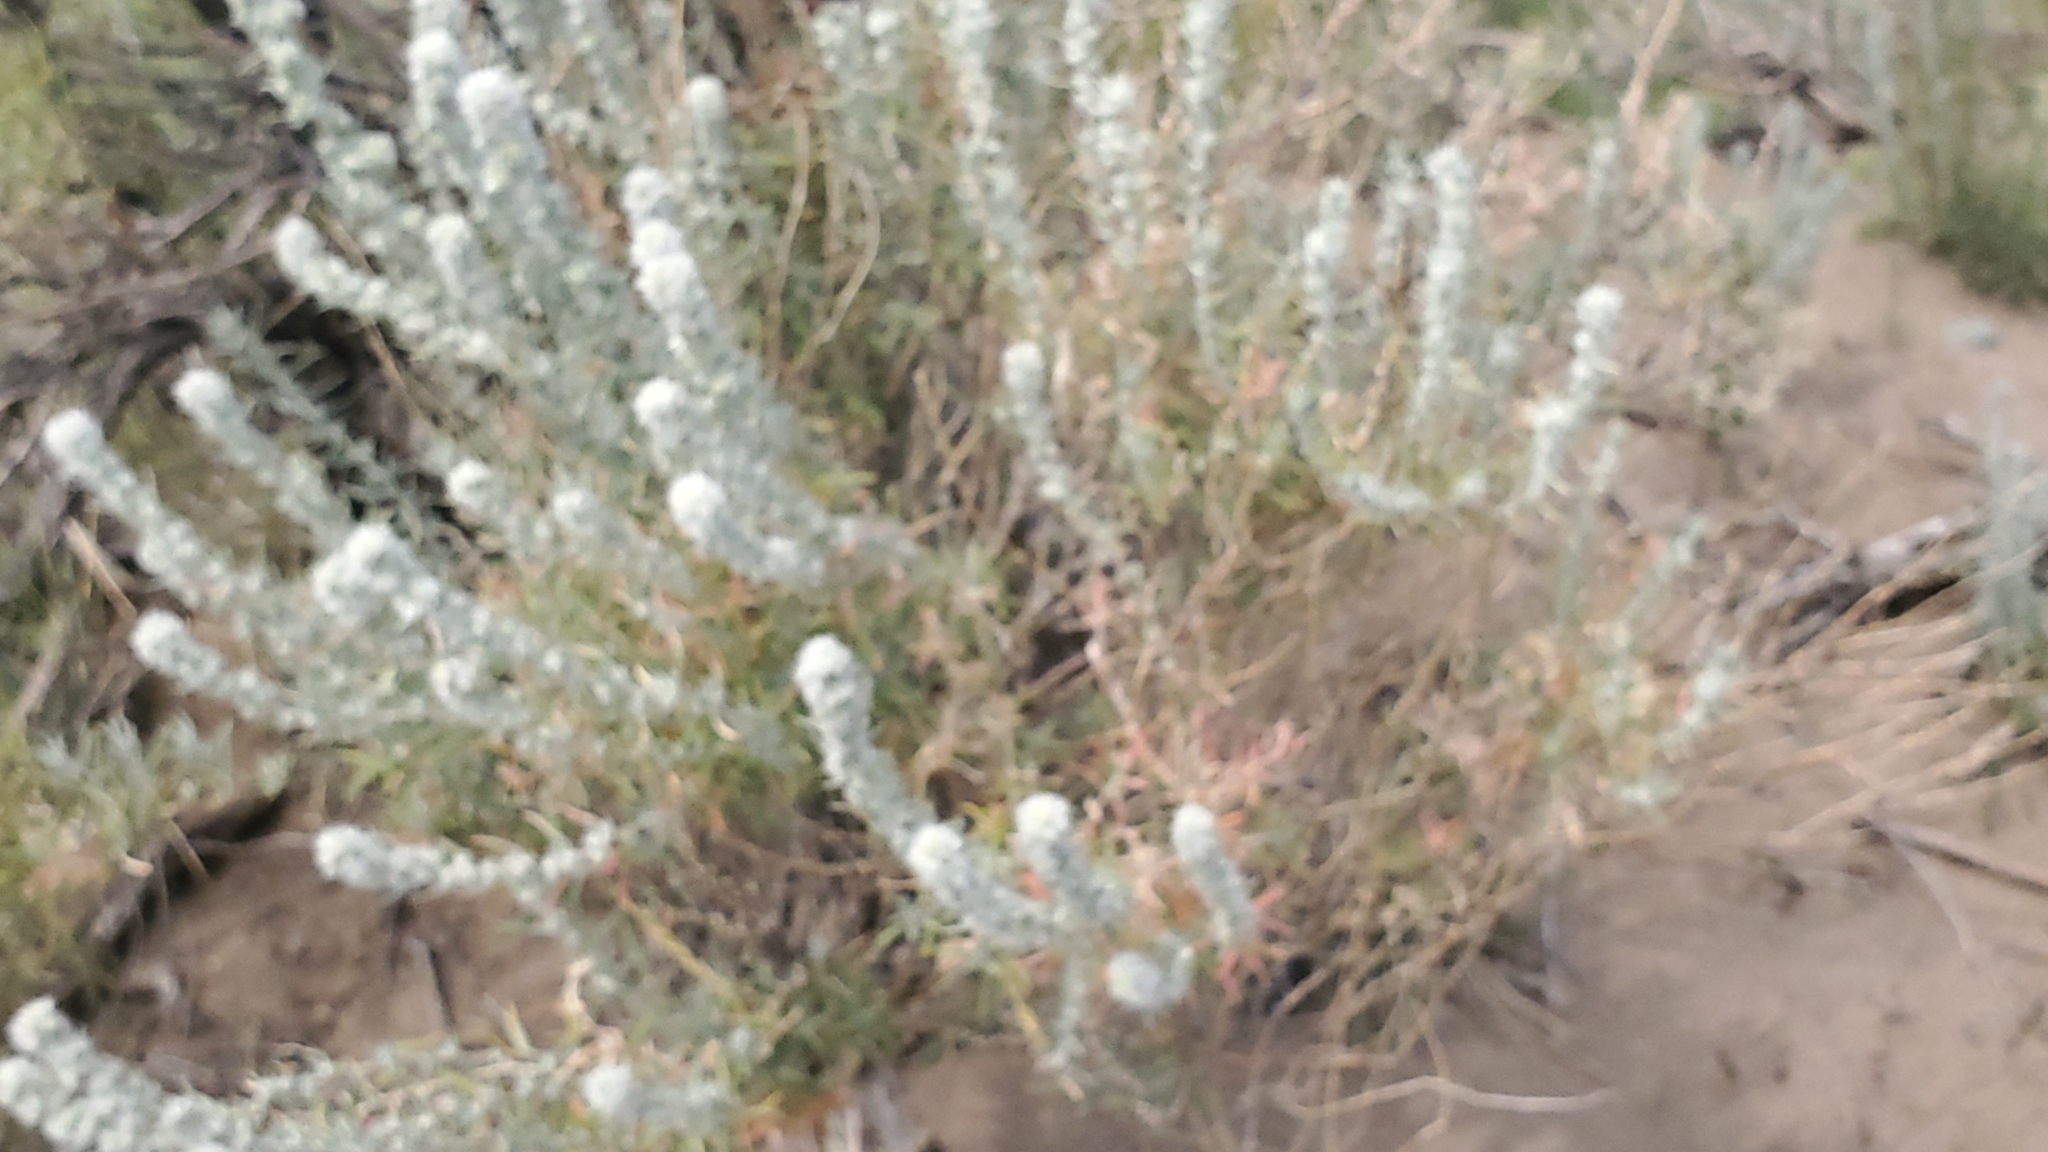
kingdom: Plantae
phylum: Tracheophyta
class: Magnoliopsida
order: Caryophyllales
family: Amaranthaceae
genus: Krascheninnikovia
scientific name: Krascheninnikovia lanata
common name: Winterfat
